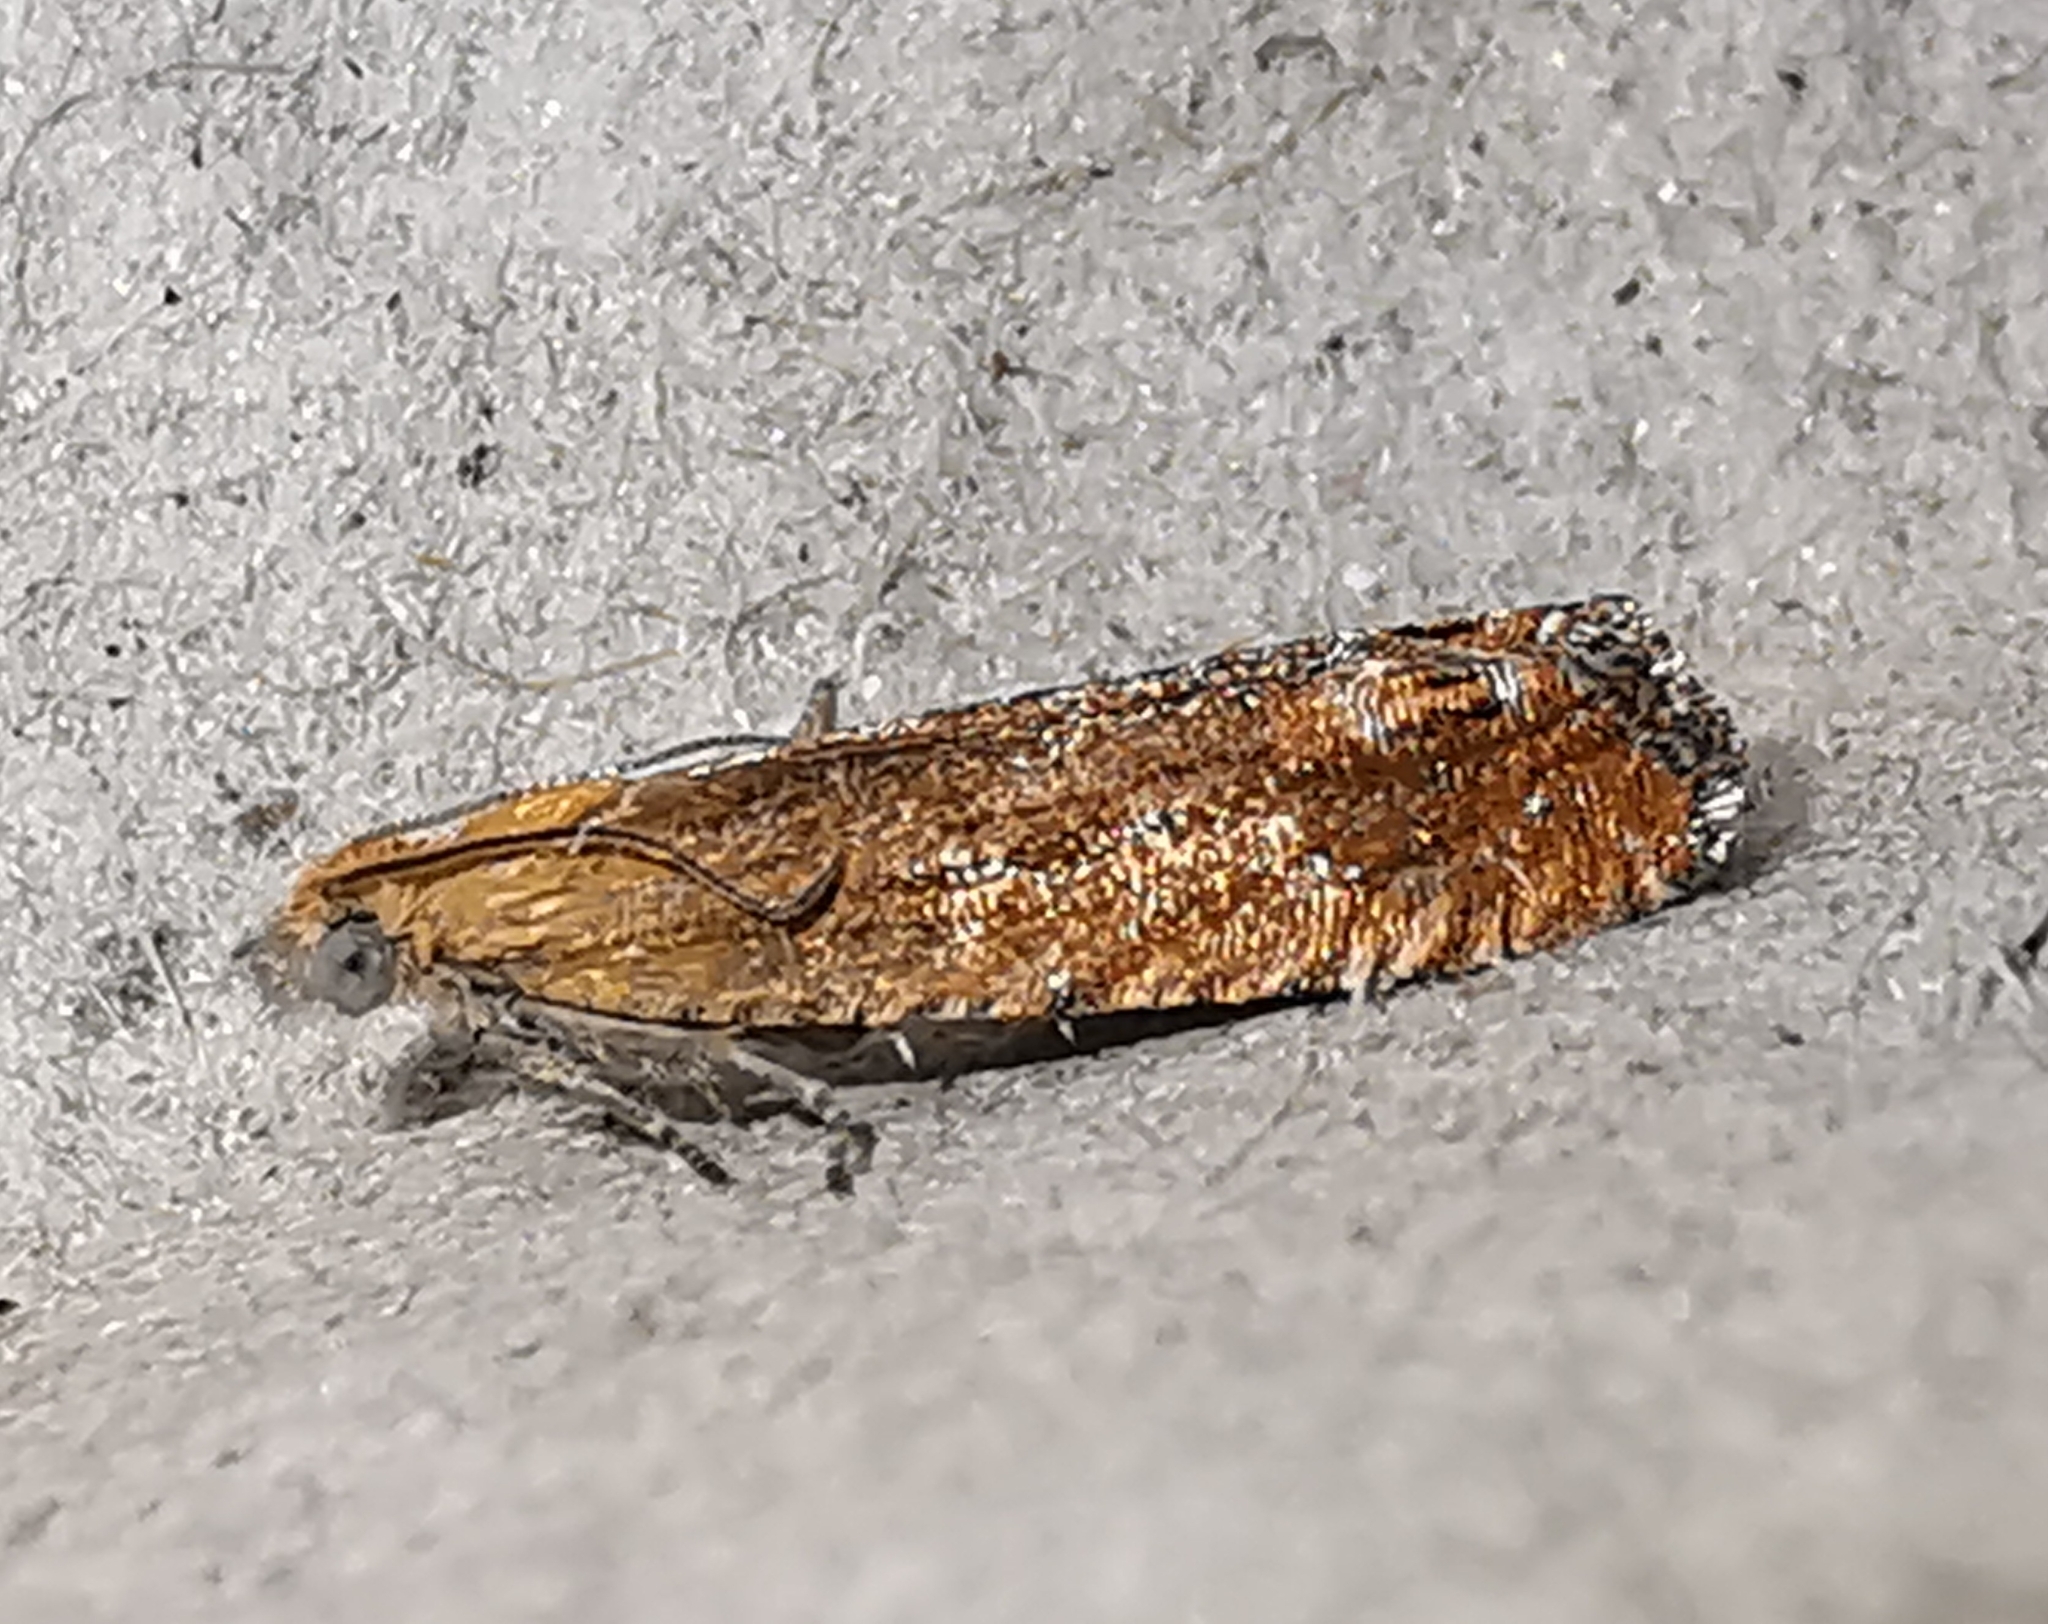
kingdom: Animalia
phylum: Arthropoda
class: Insecta
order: Lepidoptera
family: Tortricidae
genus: Lathronympha
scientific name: Lathronympha strigana
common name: Red piercer
